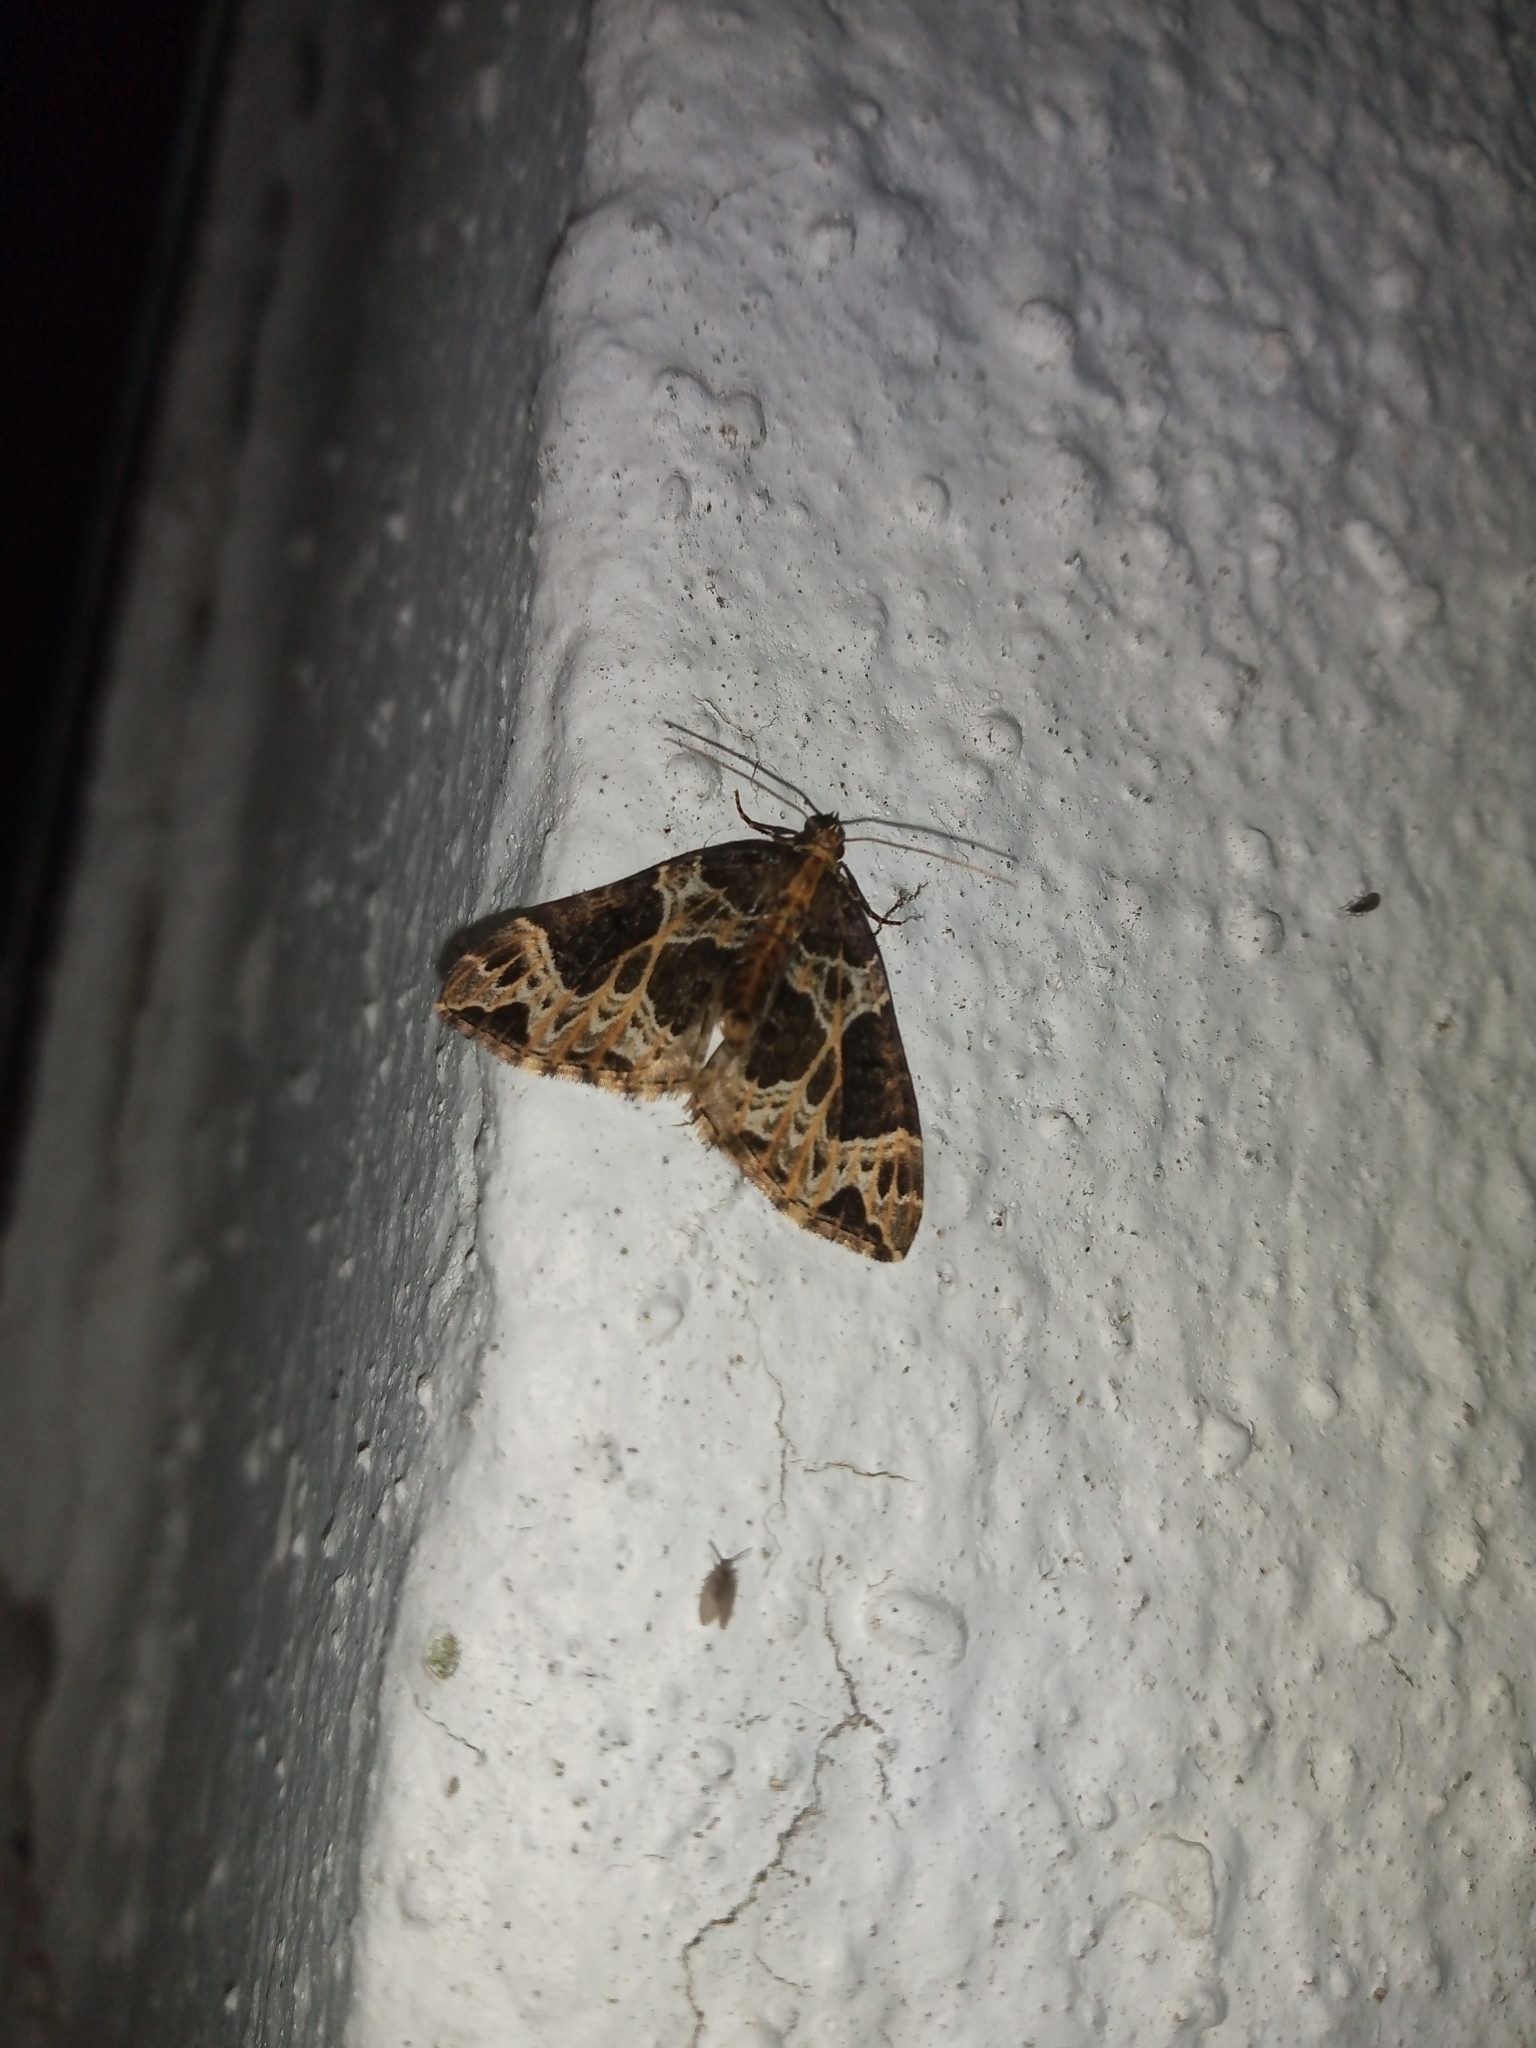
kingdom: Animalia
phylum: Arthropoda
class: Insecta
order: Lepidoptera
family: Geometridae
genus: Ecliptopera
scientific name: Ecliptopera silaceata
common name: Small phoenix
